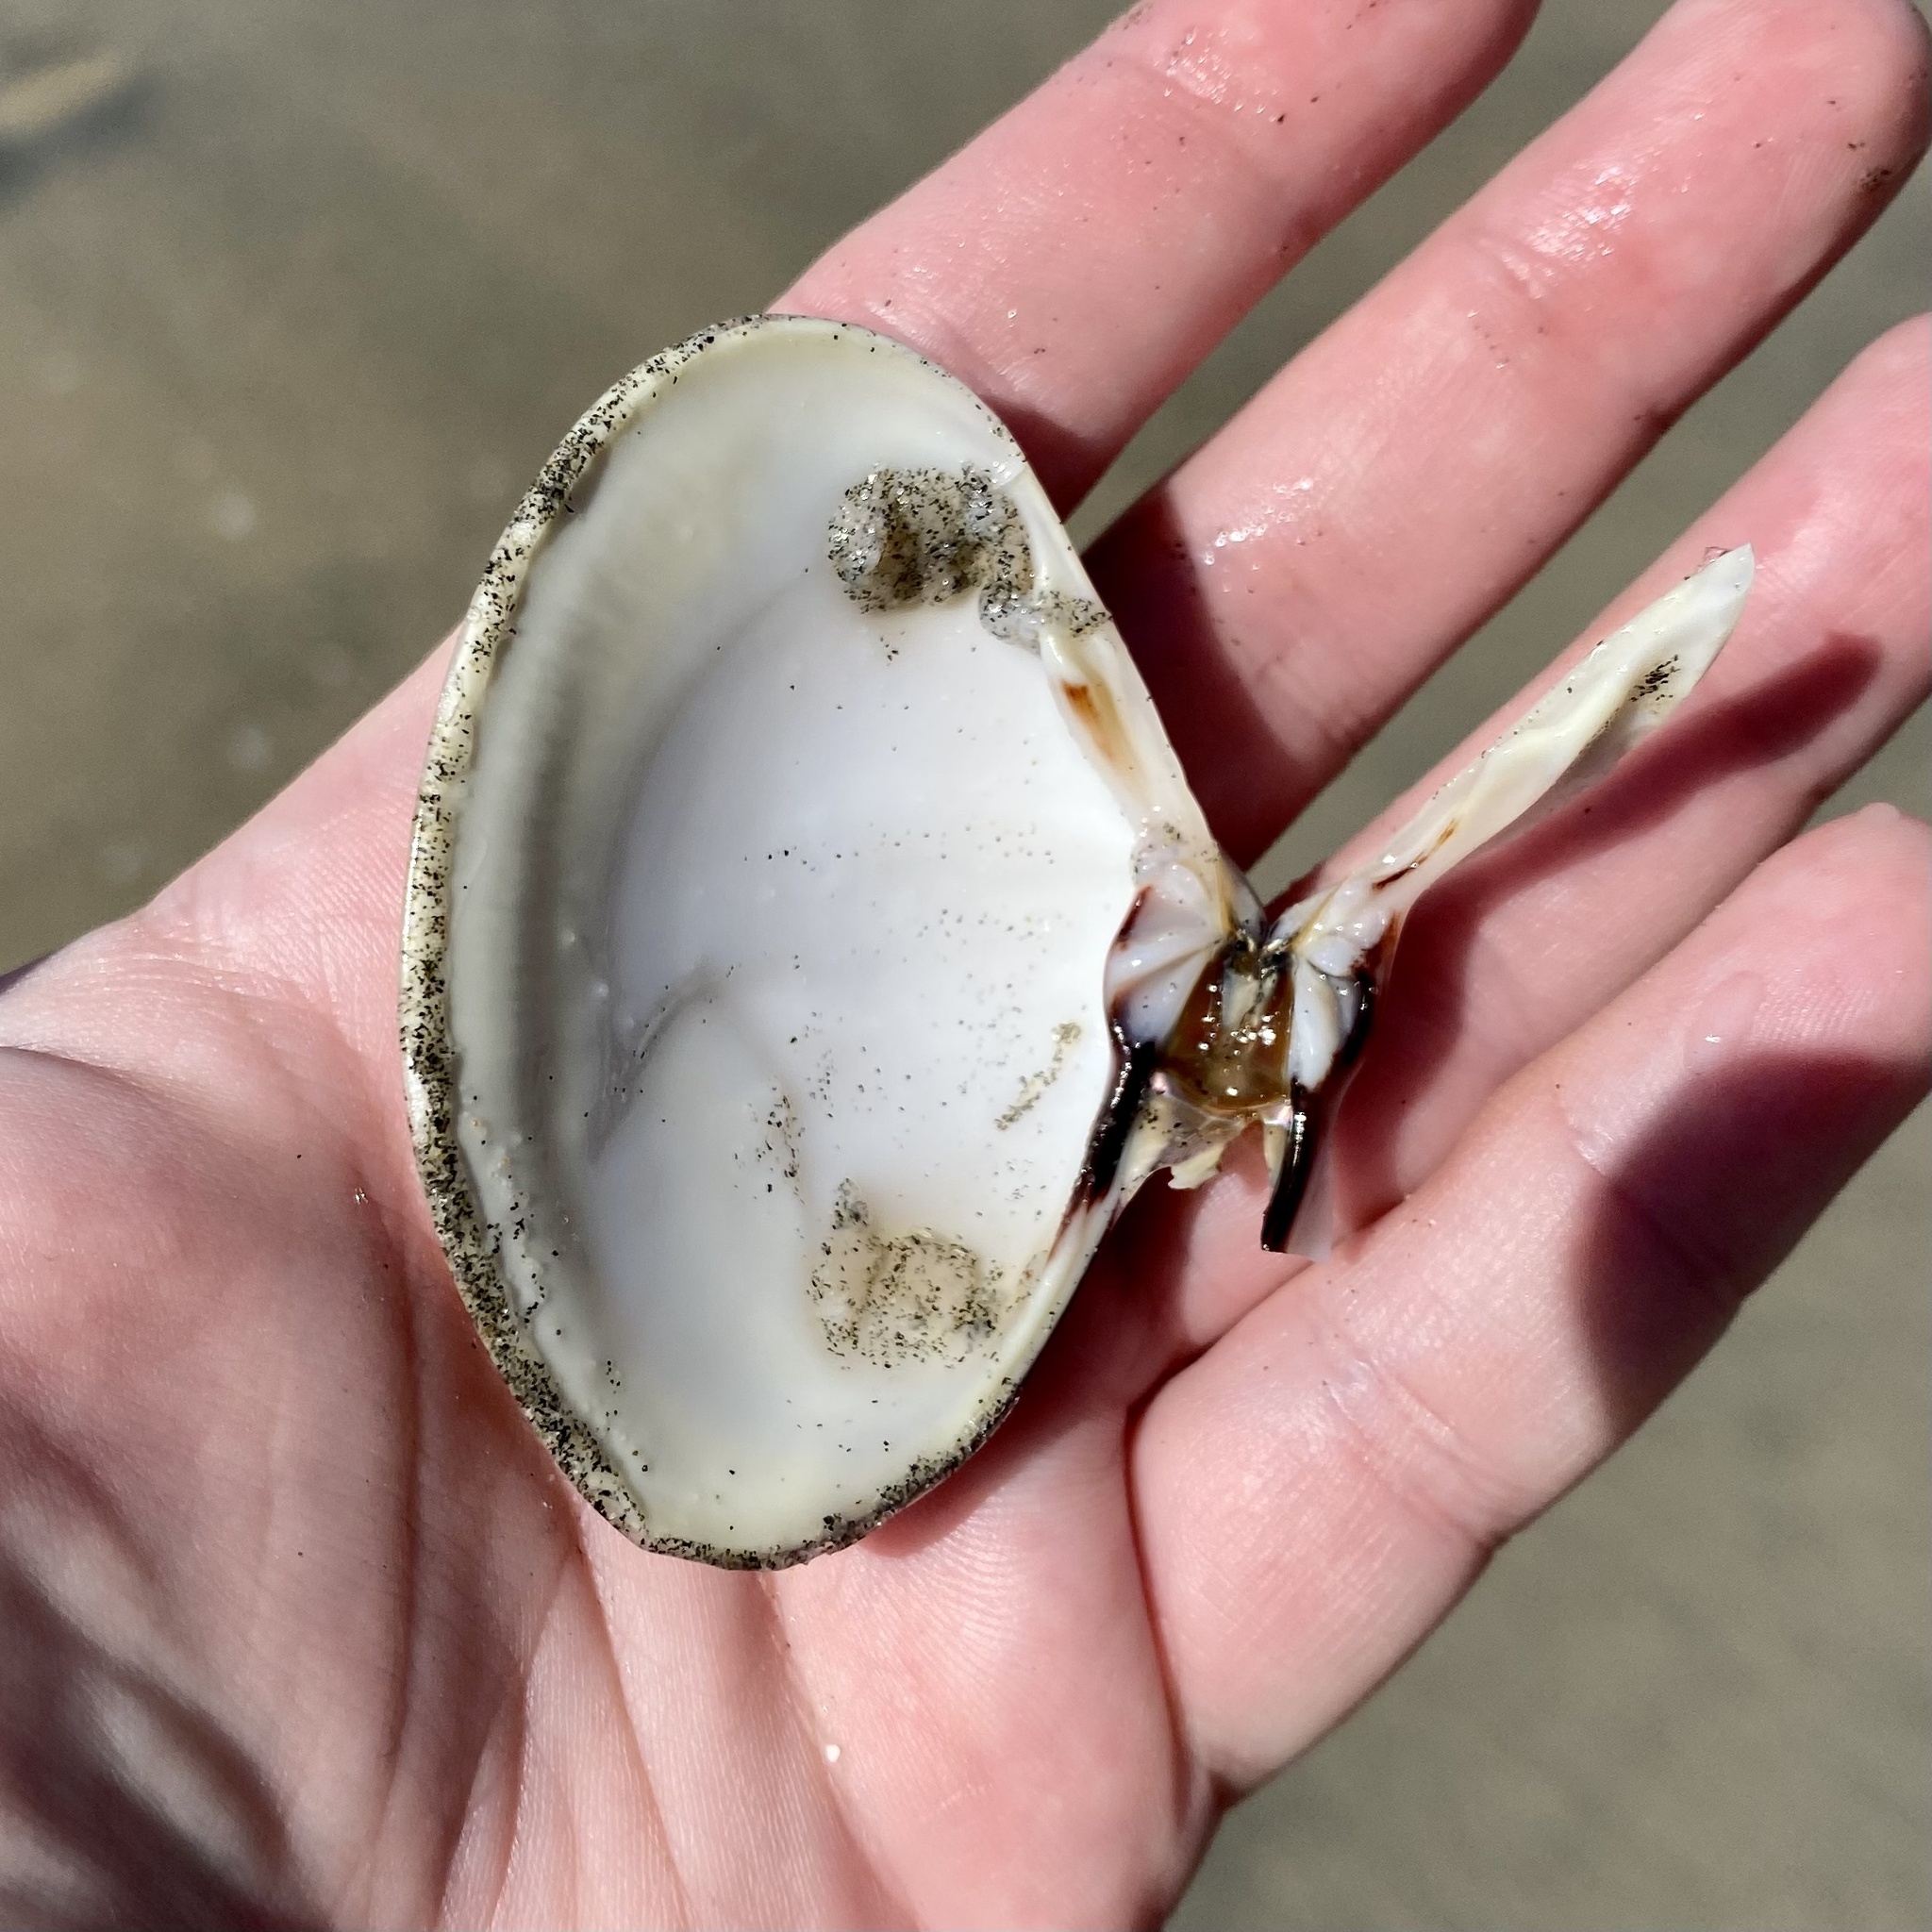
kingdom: Animalia
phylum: Mollusca
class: Bivalvia
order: Venerida
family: Veneridae
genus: Tivela
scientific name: Tivela stultorum
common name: Pismo clam
